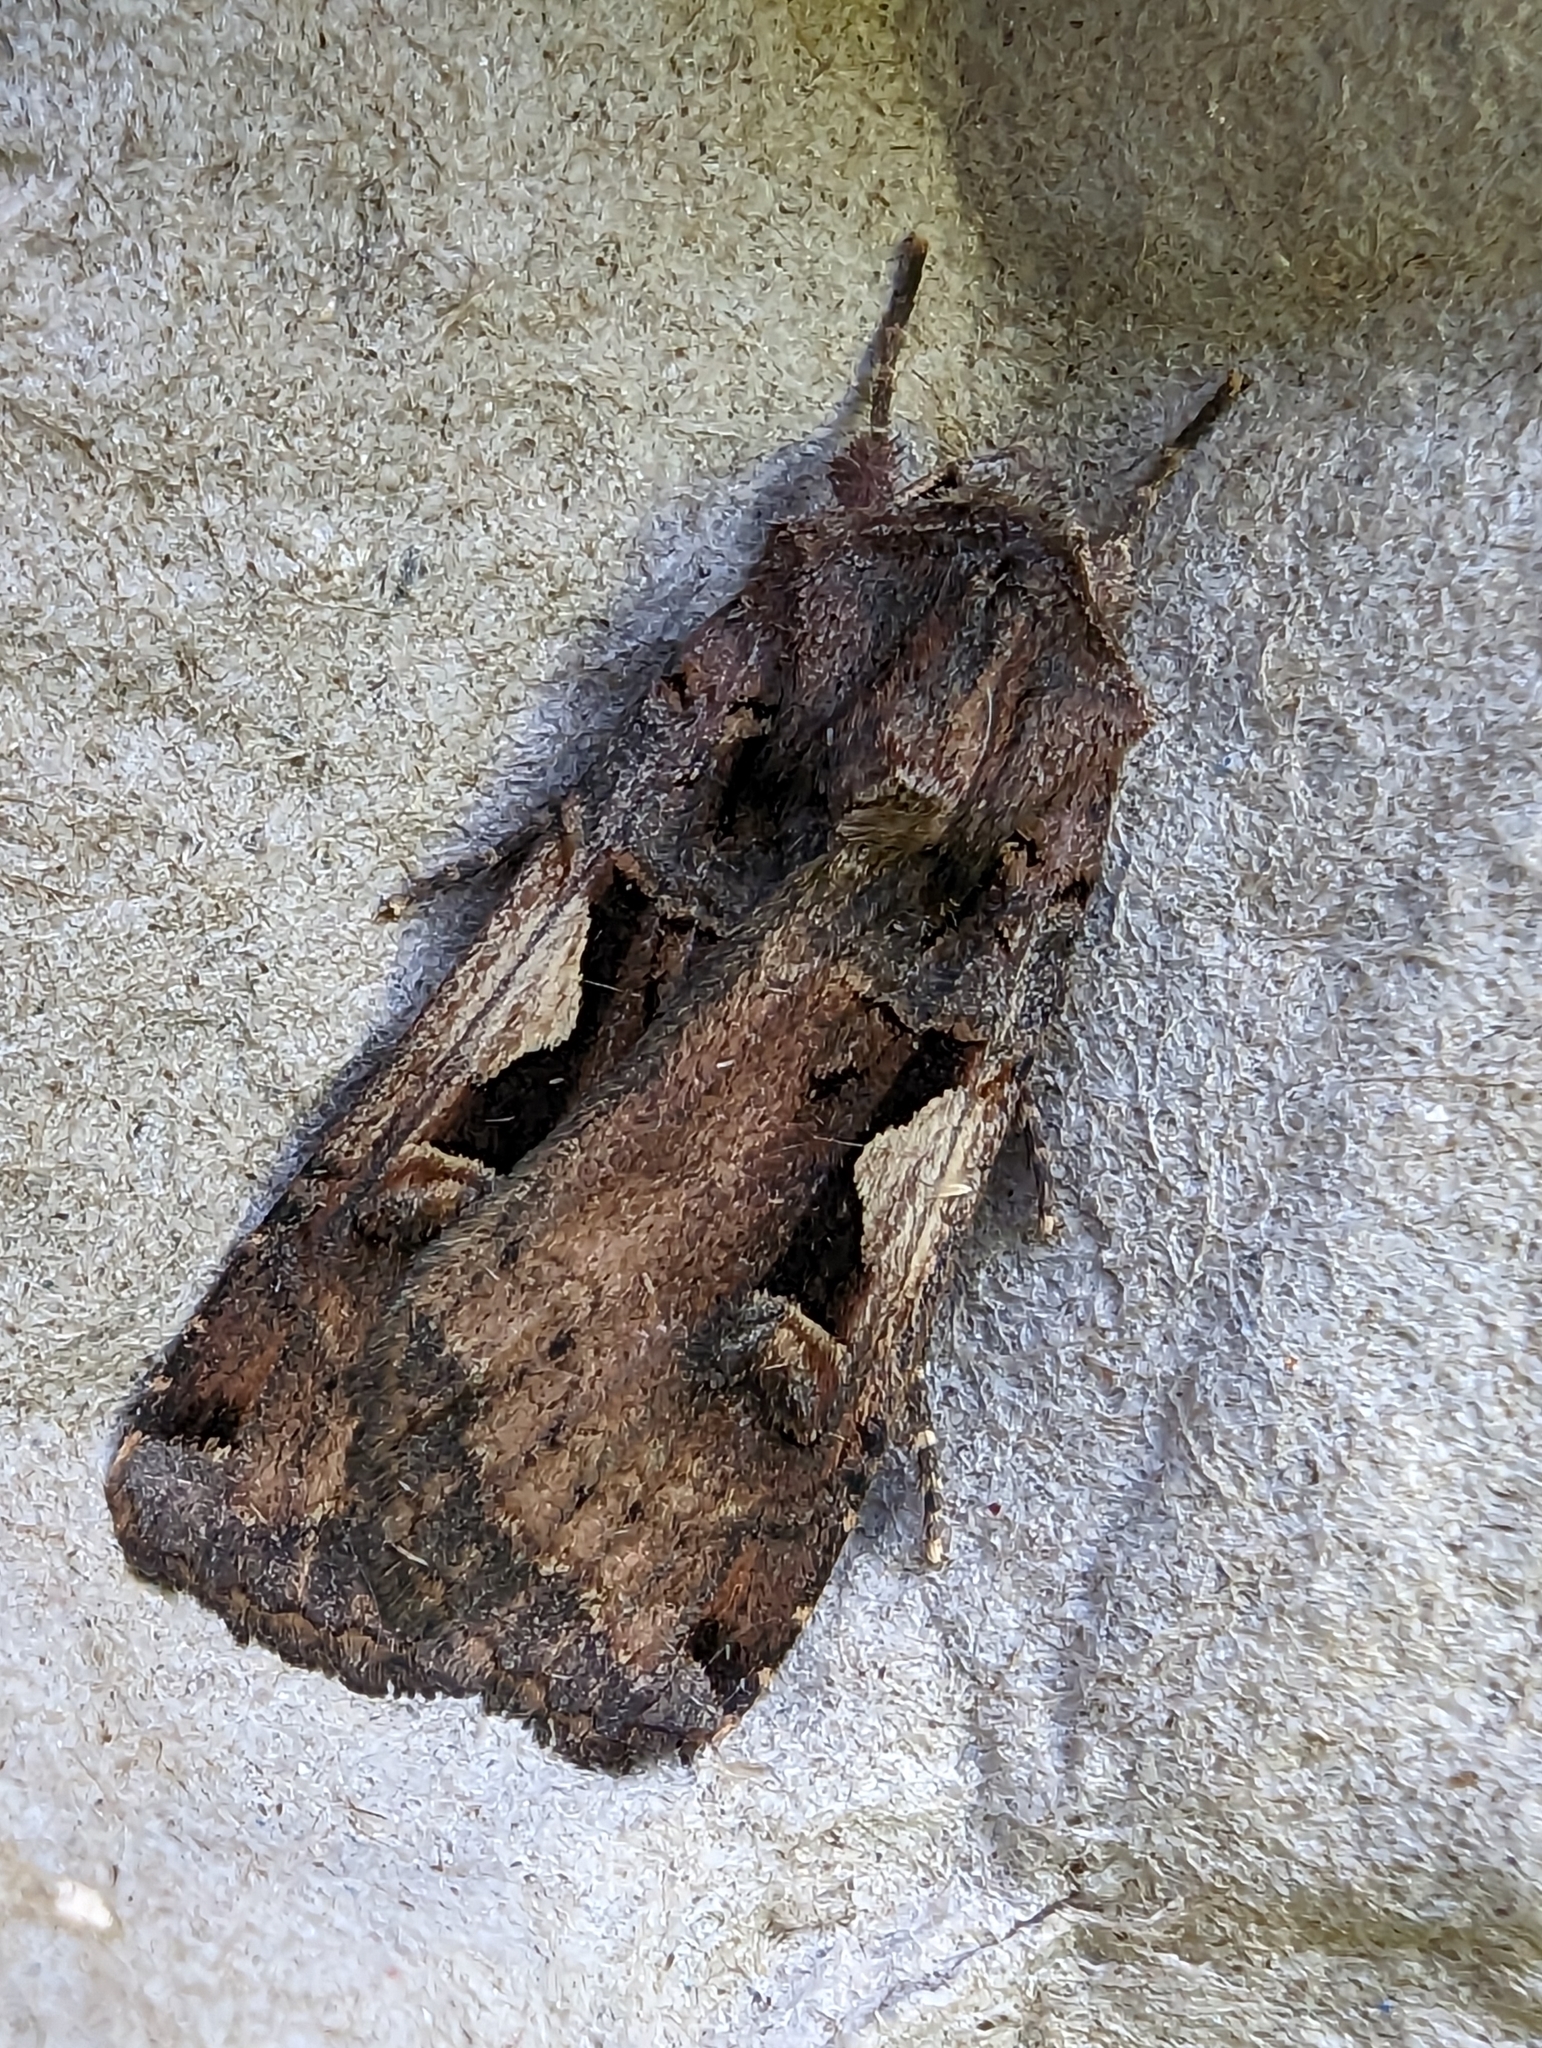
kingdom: Animalia
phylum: Arthropoda
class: Insecta
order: Lepidoptera
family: Noctuidae
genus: Xestia
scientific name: Xestia c-nigrum
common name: Setaceous hebrew character
